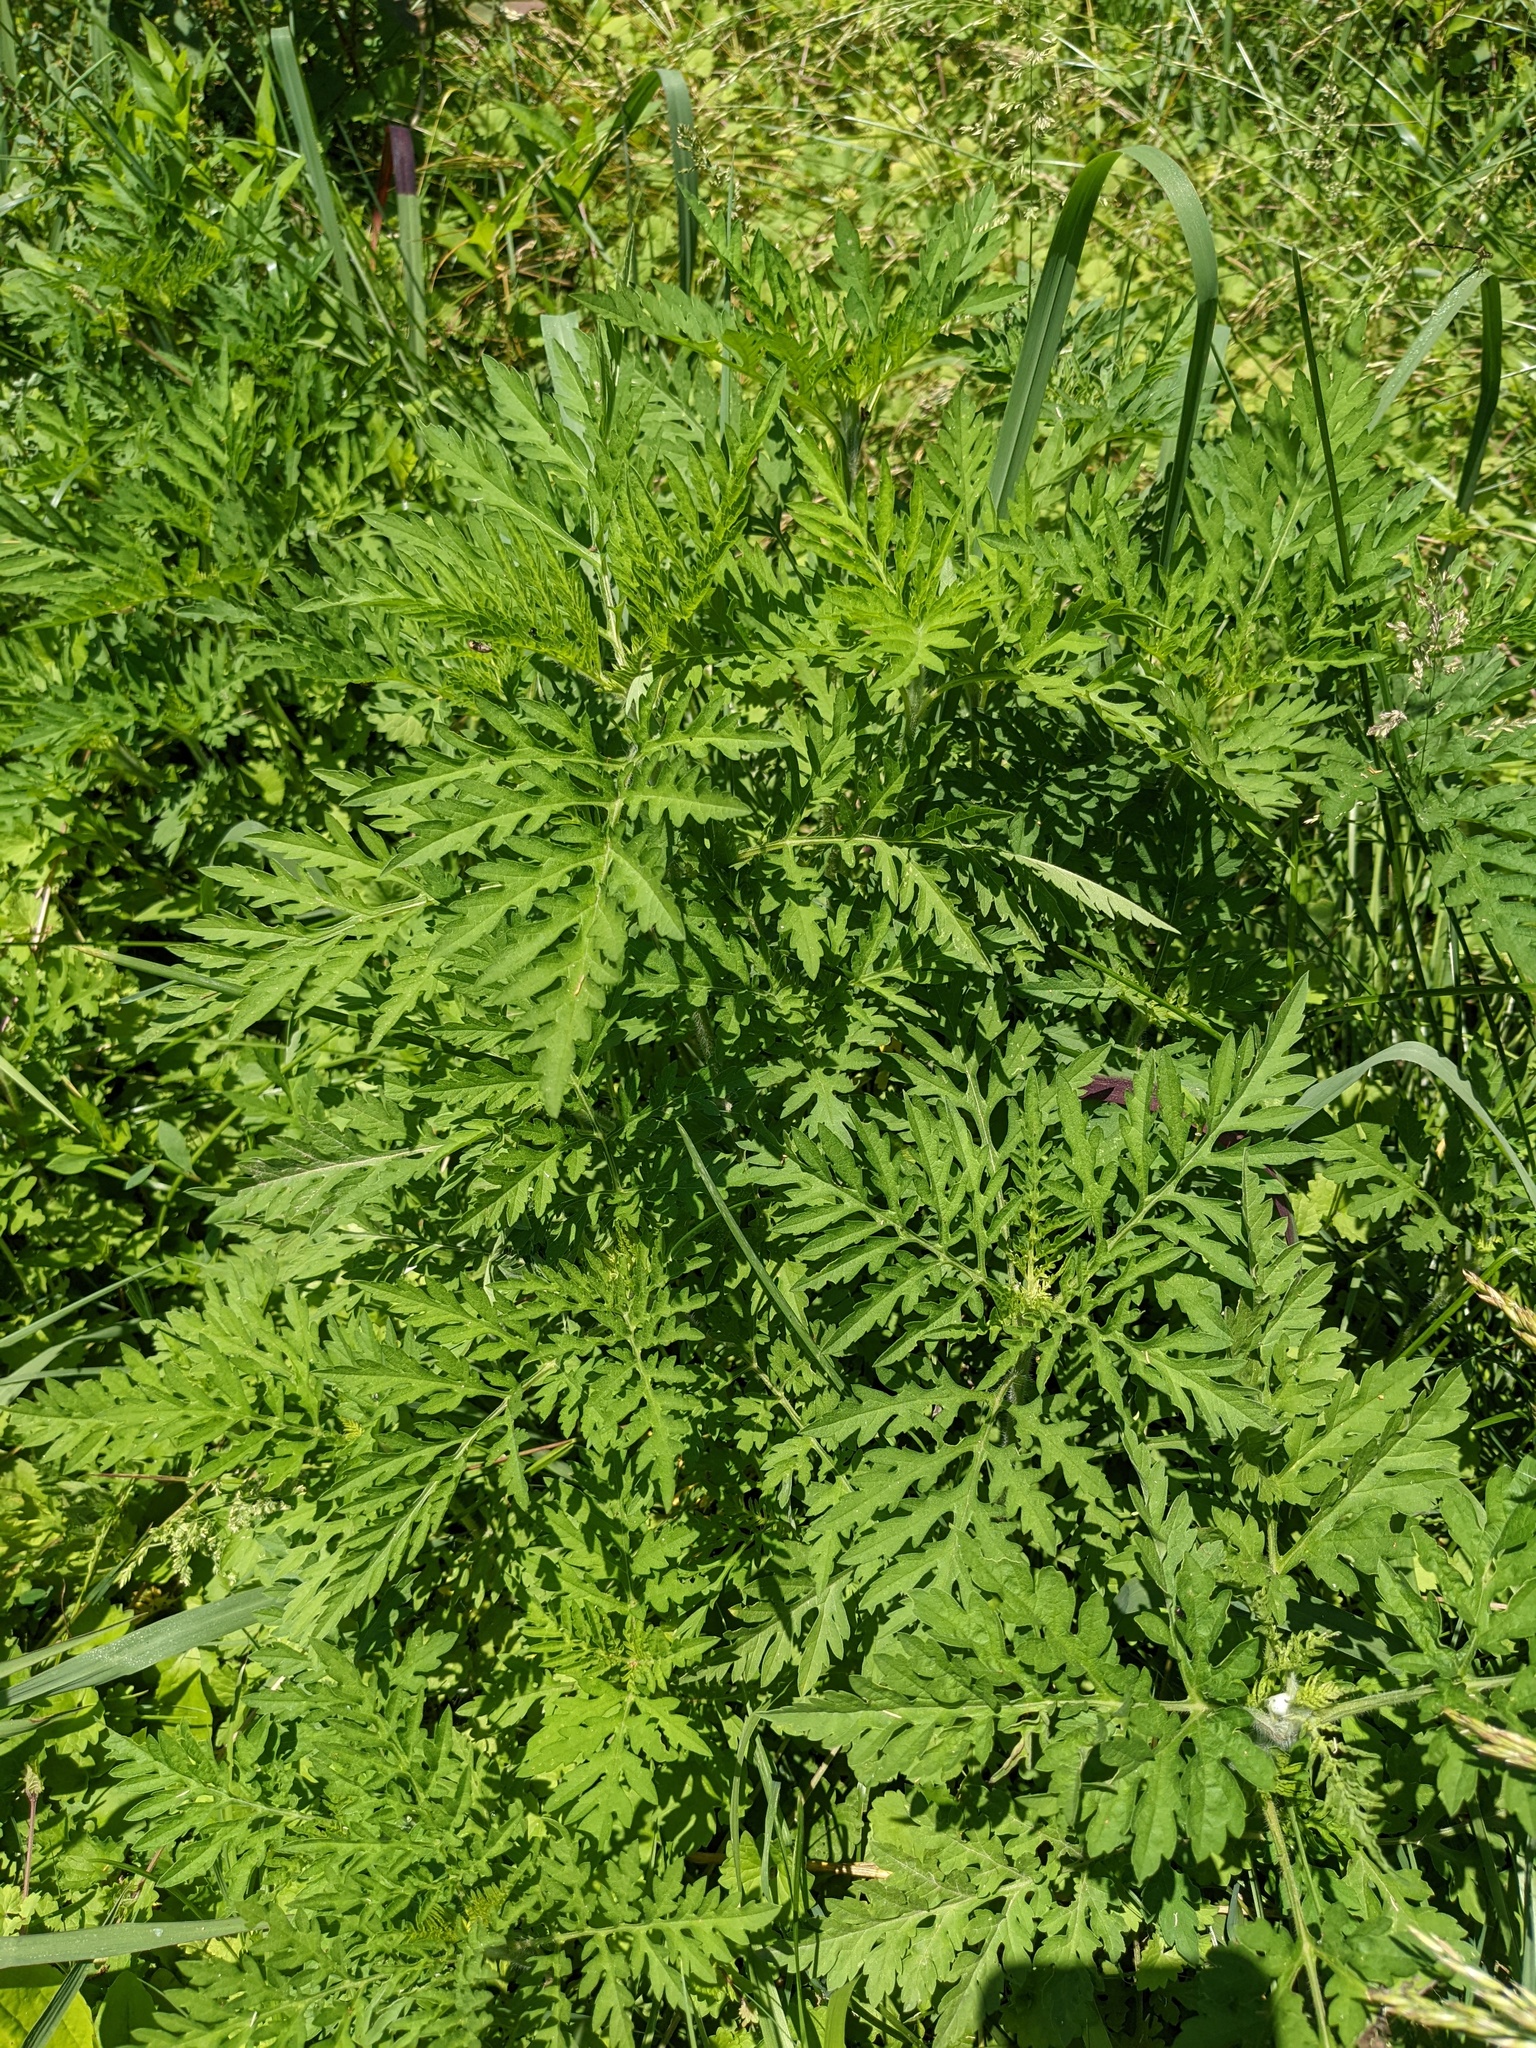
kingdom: Plantae
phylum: Tracheophyta
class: Magnoliopsida
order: Asterales
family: Asteraceae
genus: Ambrosia
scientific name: Ambrosia artemisiifolia
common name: Annual ragweed
